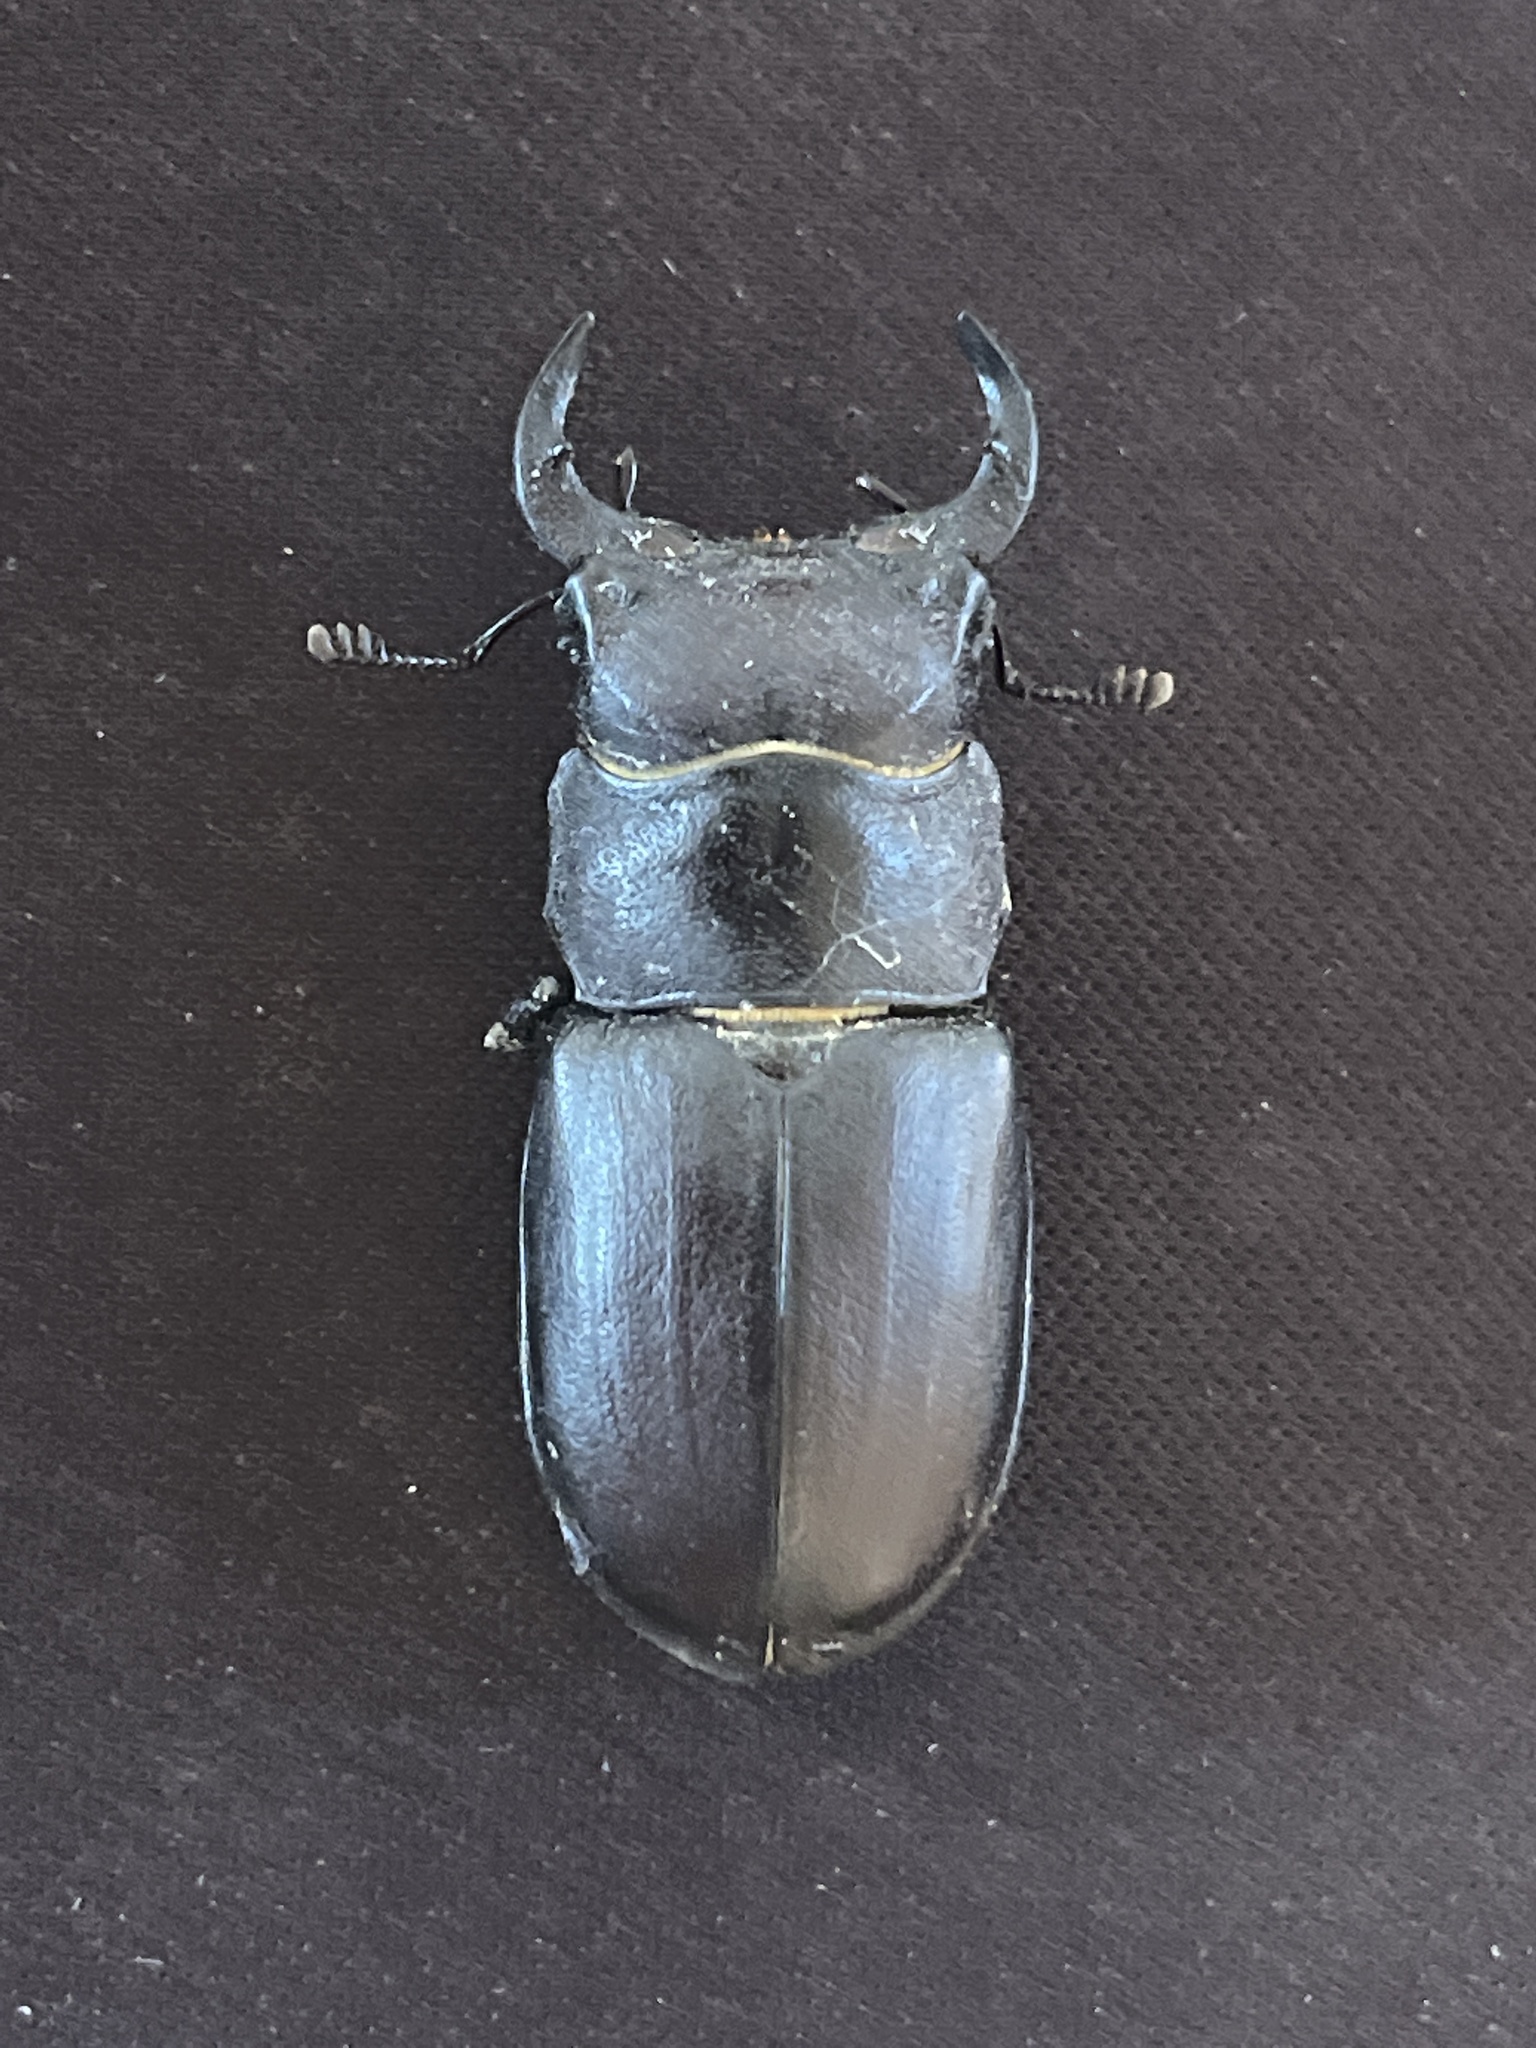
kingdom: Animalia
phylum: Arthropoda
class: Insecta
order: Coleoptera
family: Lucanidae
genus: Lucanus
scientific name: Lucanus mazama
